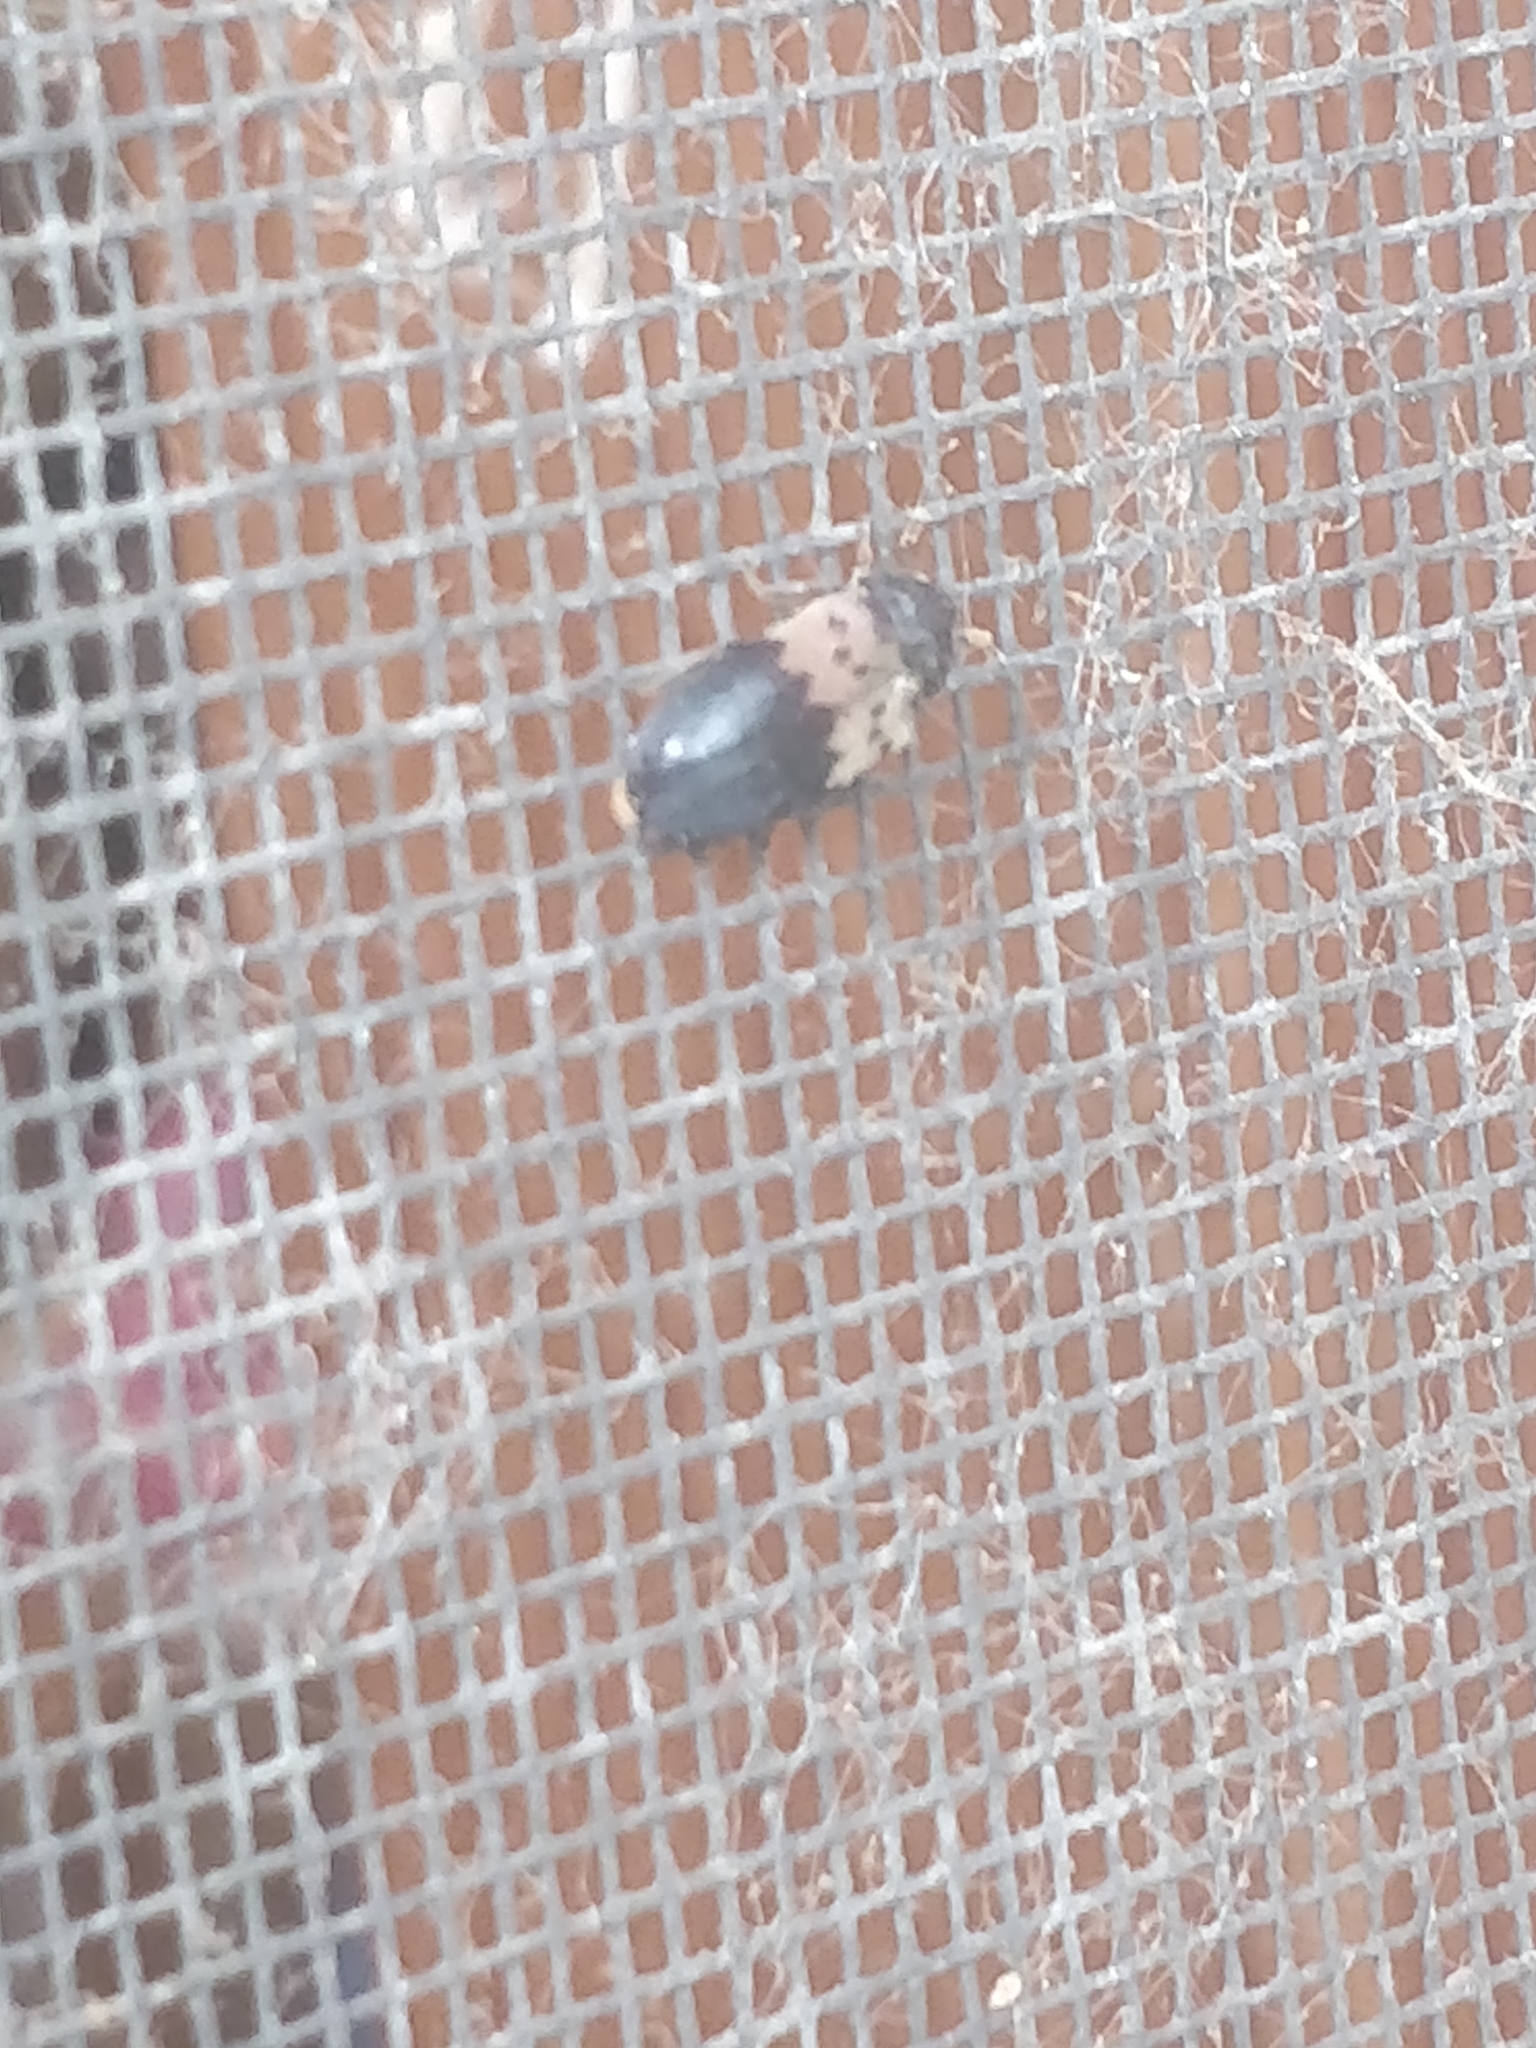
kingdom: Animalia
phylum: Arthropoda
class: Insecta
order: Coleoptera
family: Dermestidae
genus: Dermestes
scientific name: Dermestes lardarius
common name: Larder beetle
